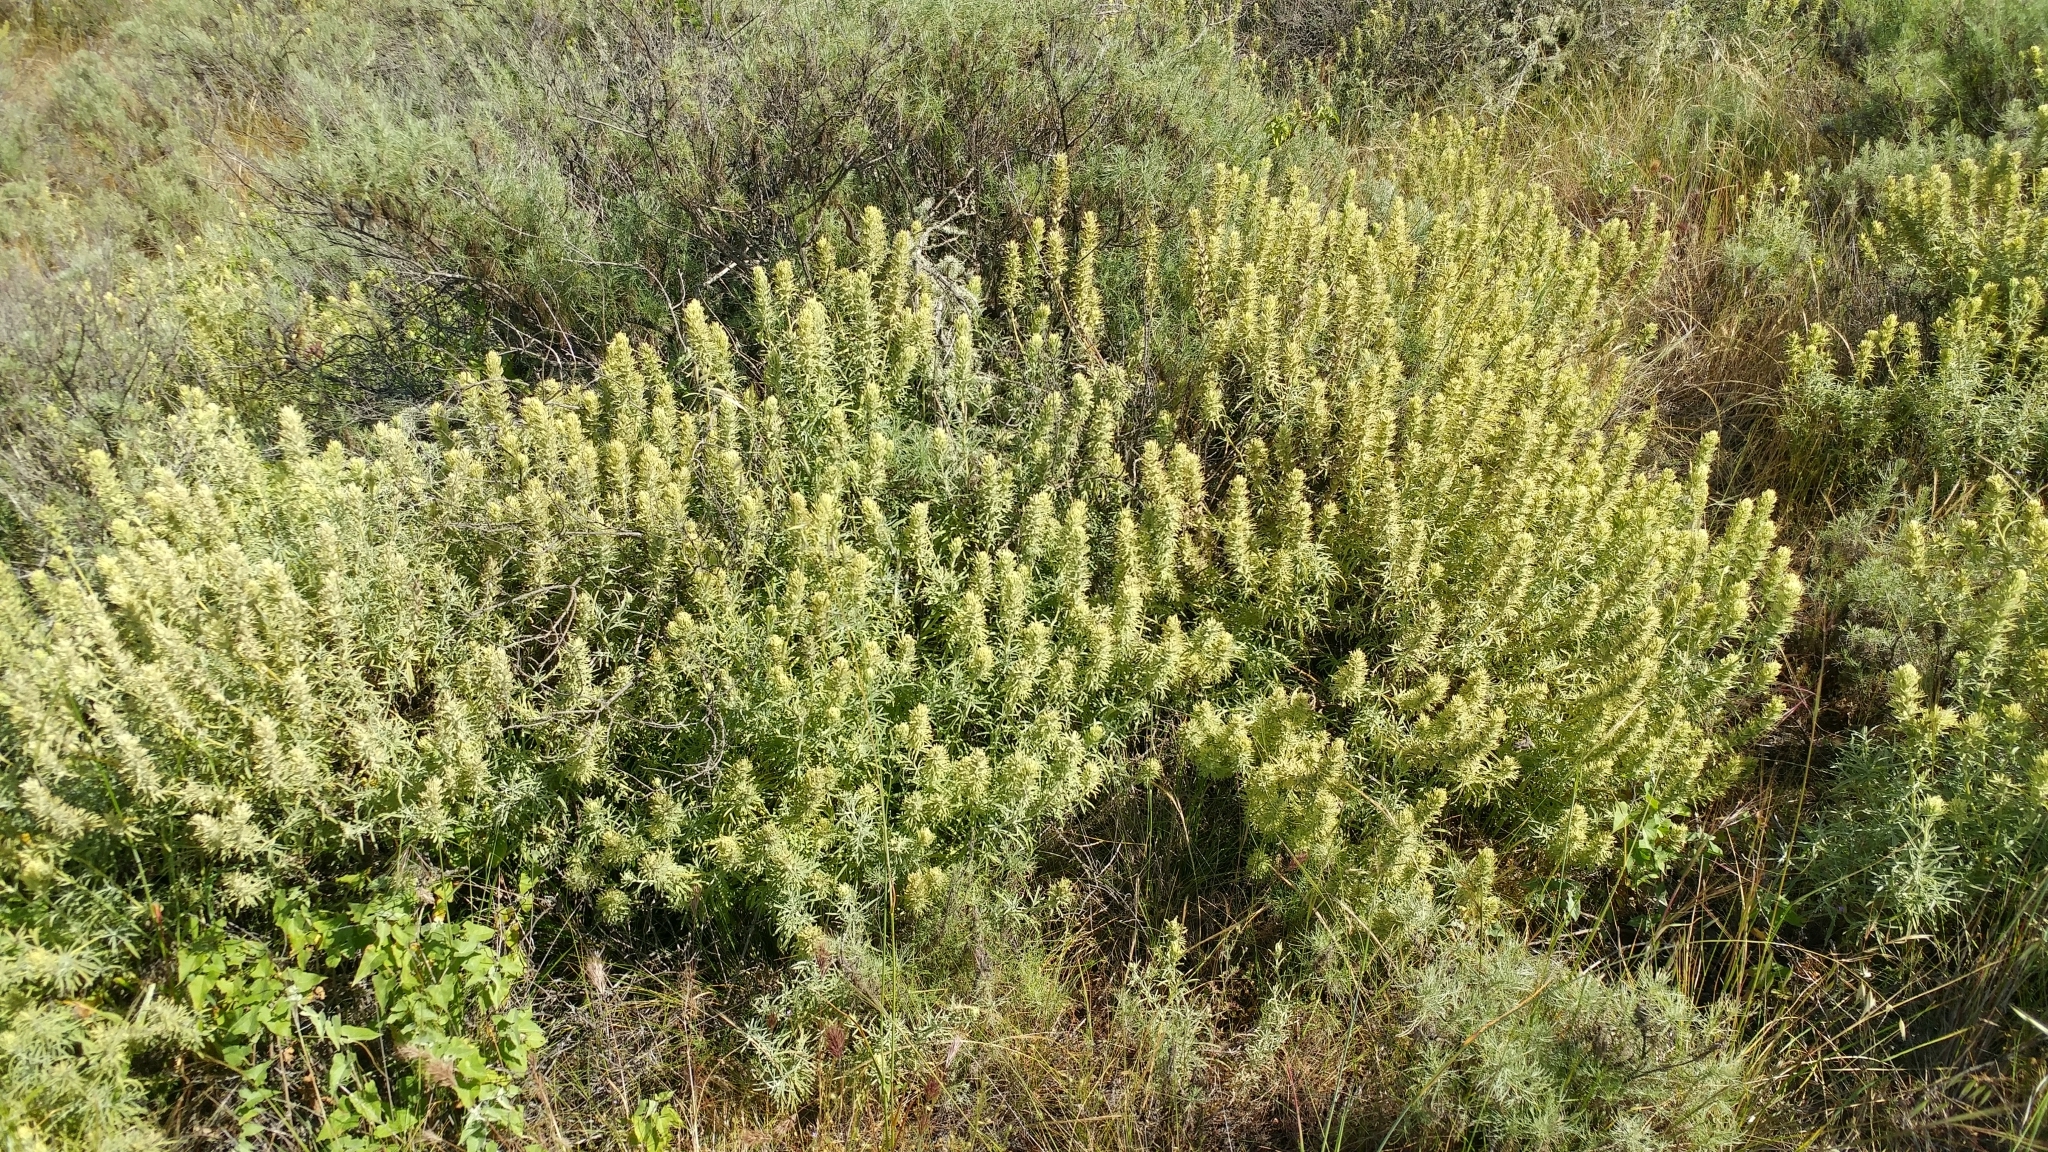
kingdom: Plantae
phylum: Tracheophyta
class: Magnoliopsida
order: Lamiales
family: Orobanchaceae
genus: Castilleja
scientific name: Castilleja grisea
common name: San clemente island indian paintbrush
